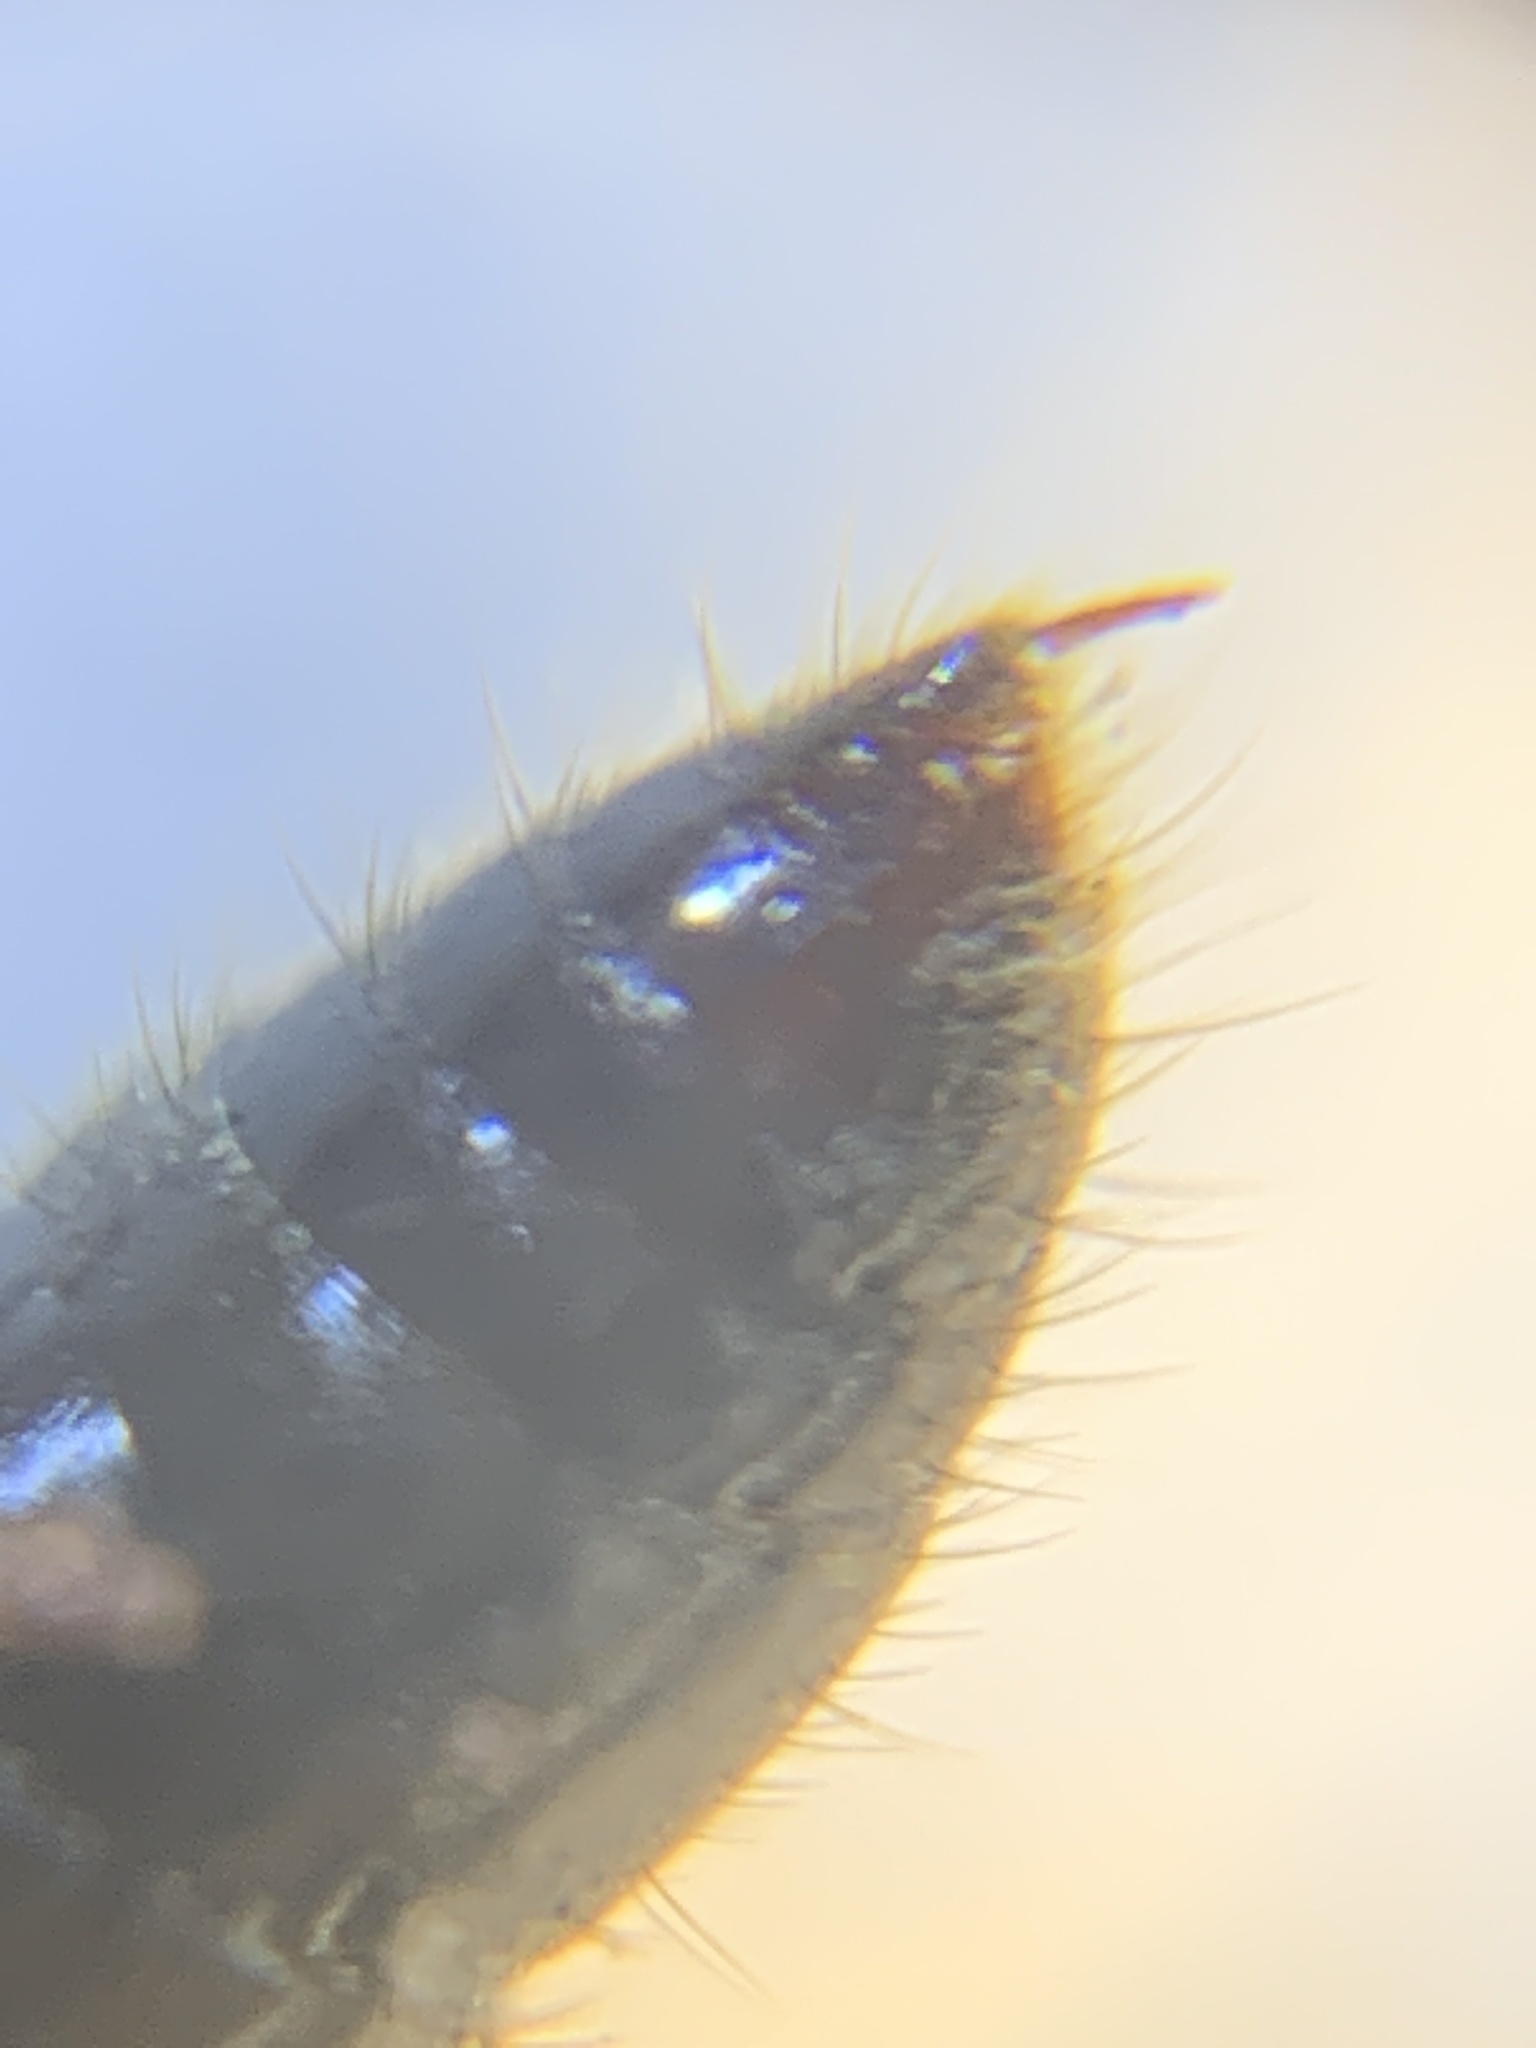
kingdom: Animalia
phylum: Arthropoda
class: Insecta
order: Hymenoptera
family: Formicidae
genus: Pachycondyla
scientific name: Pachycondyla harpax
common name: Ant
